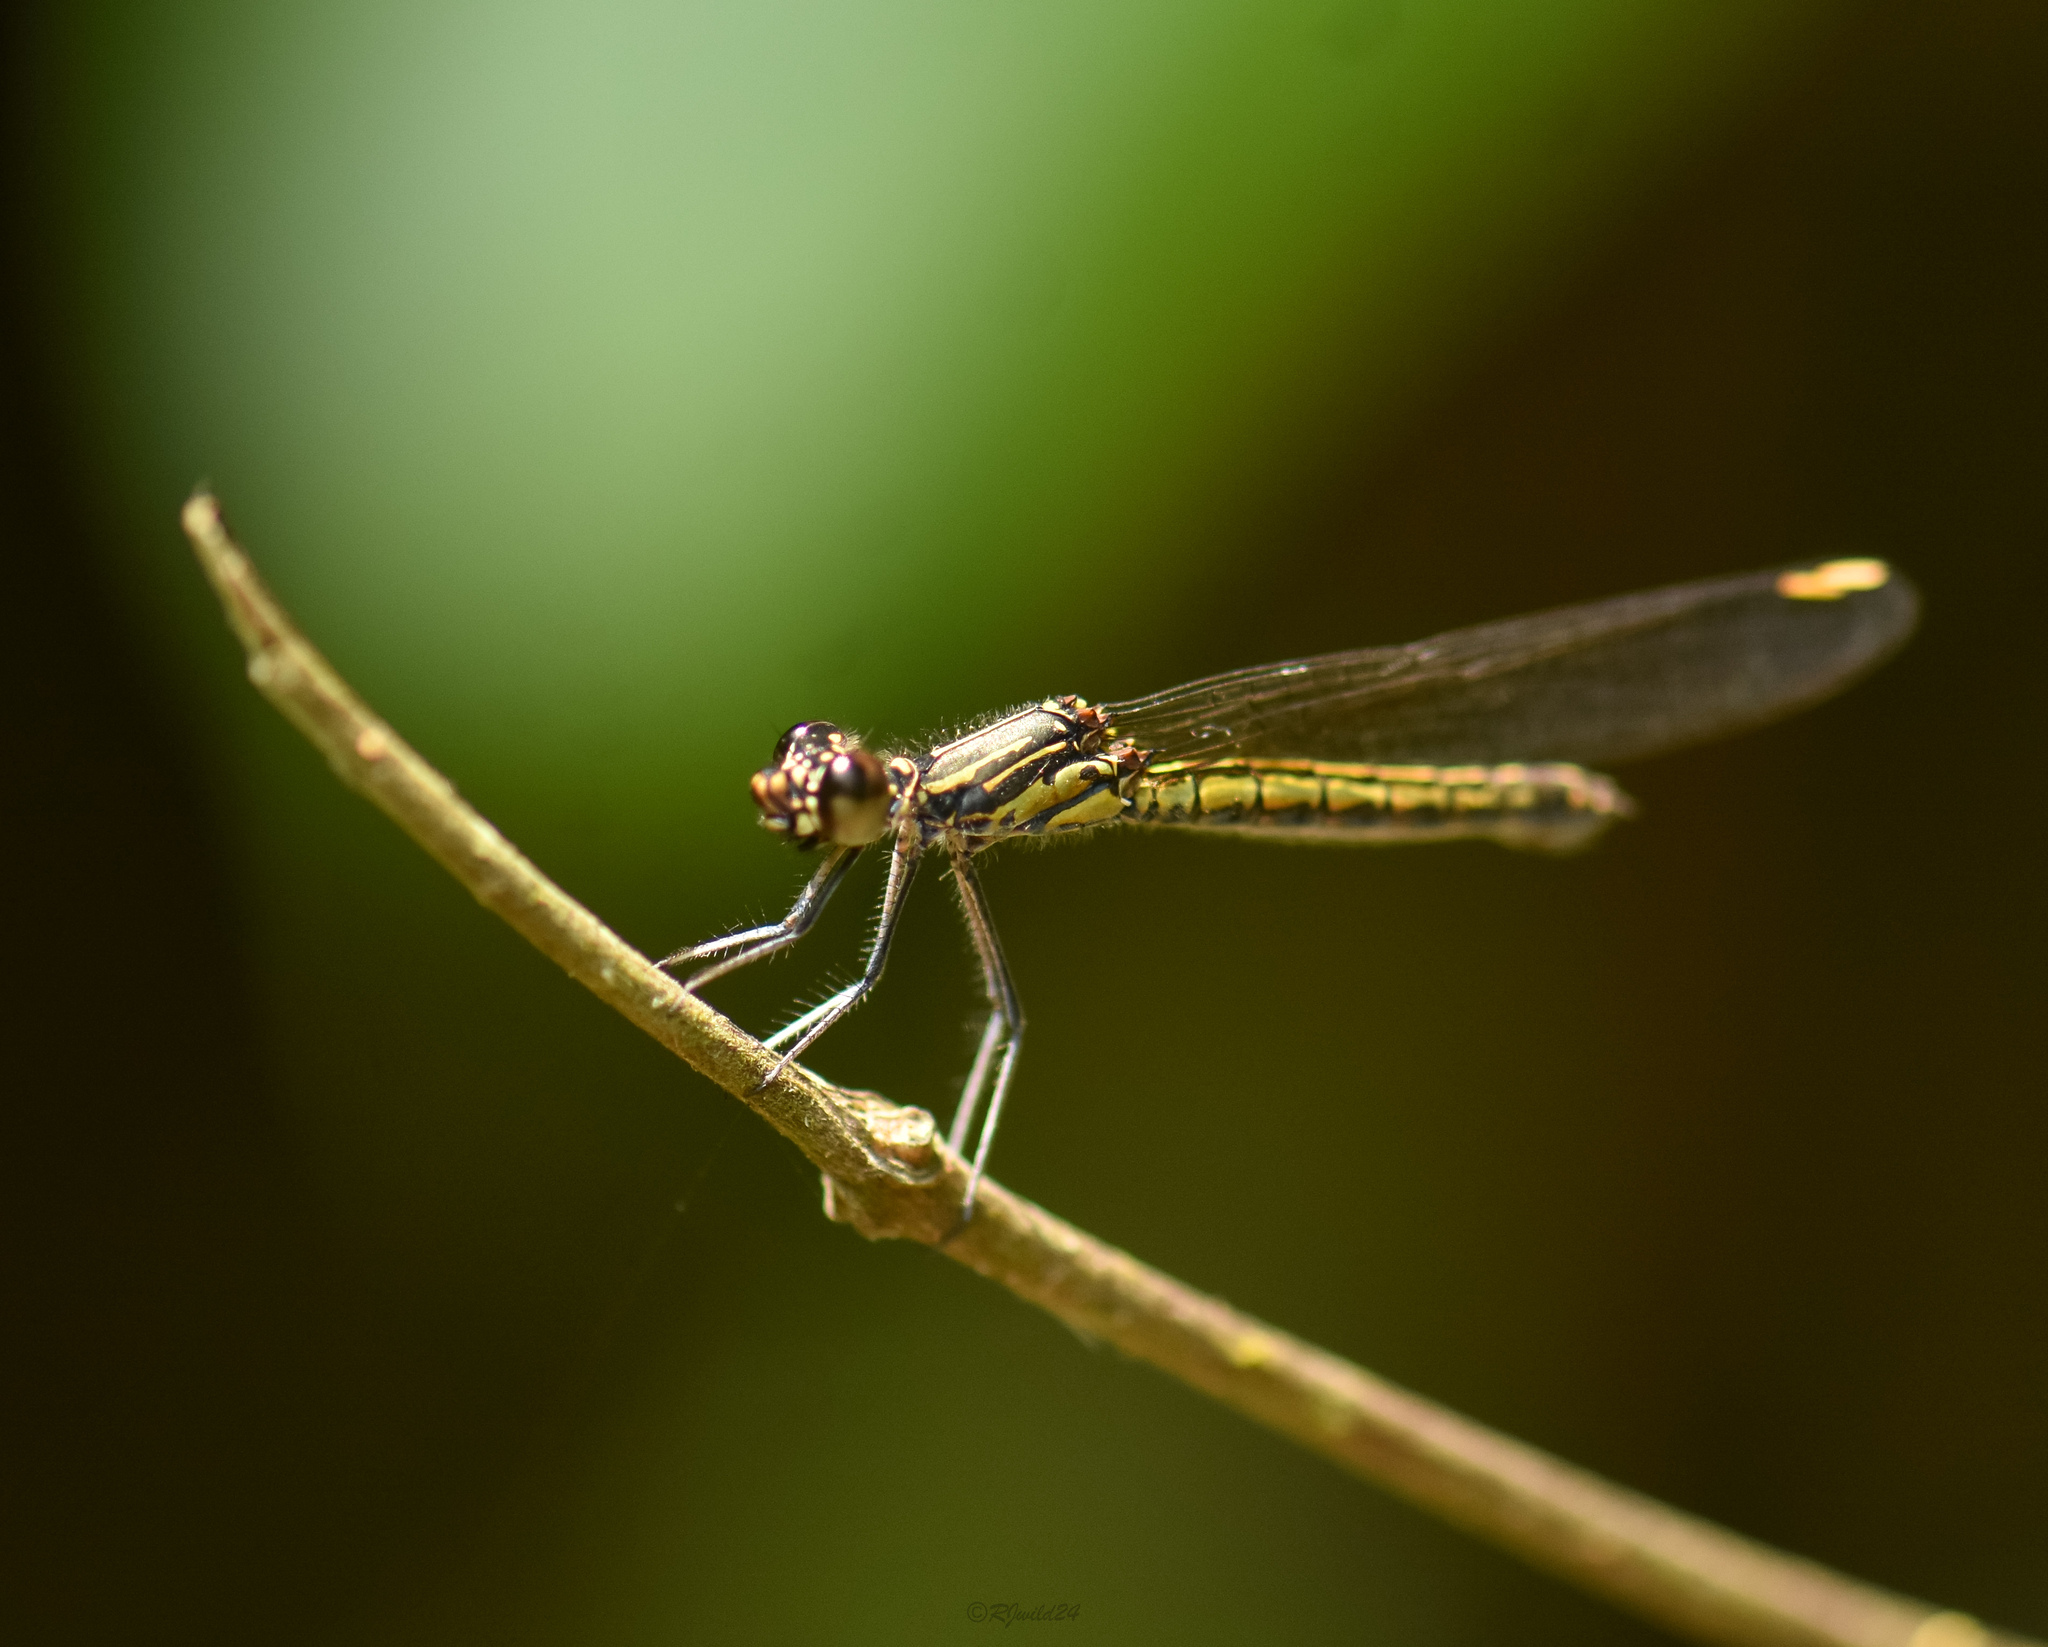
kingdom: Animalia
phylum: Arthropoda
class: Insecta
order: Odonata
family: Chlorocyphidae
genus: Libellago
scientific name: Libellago lineata
